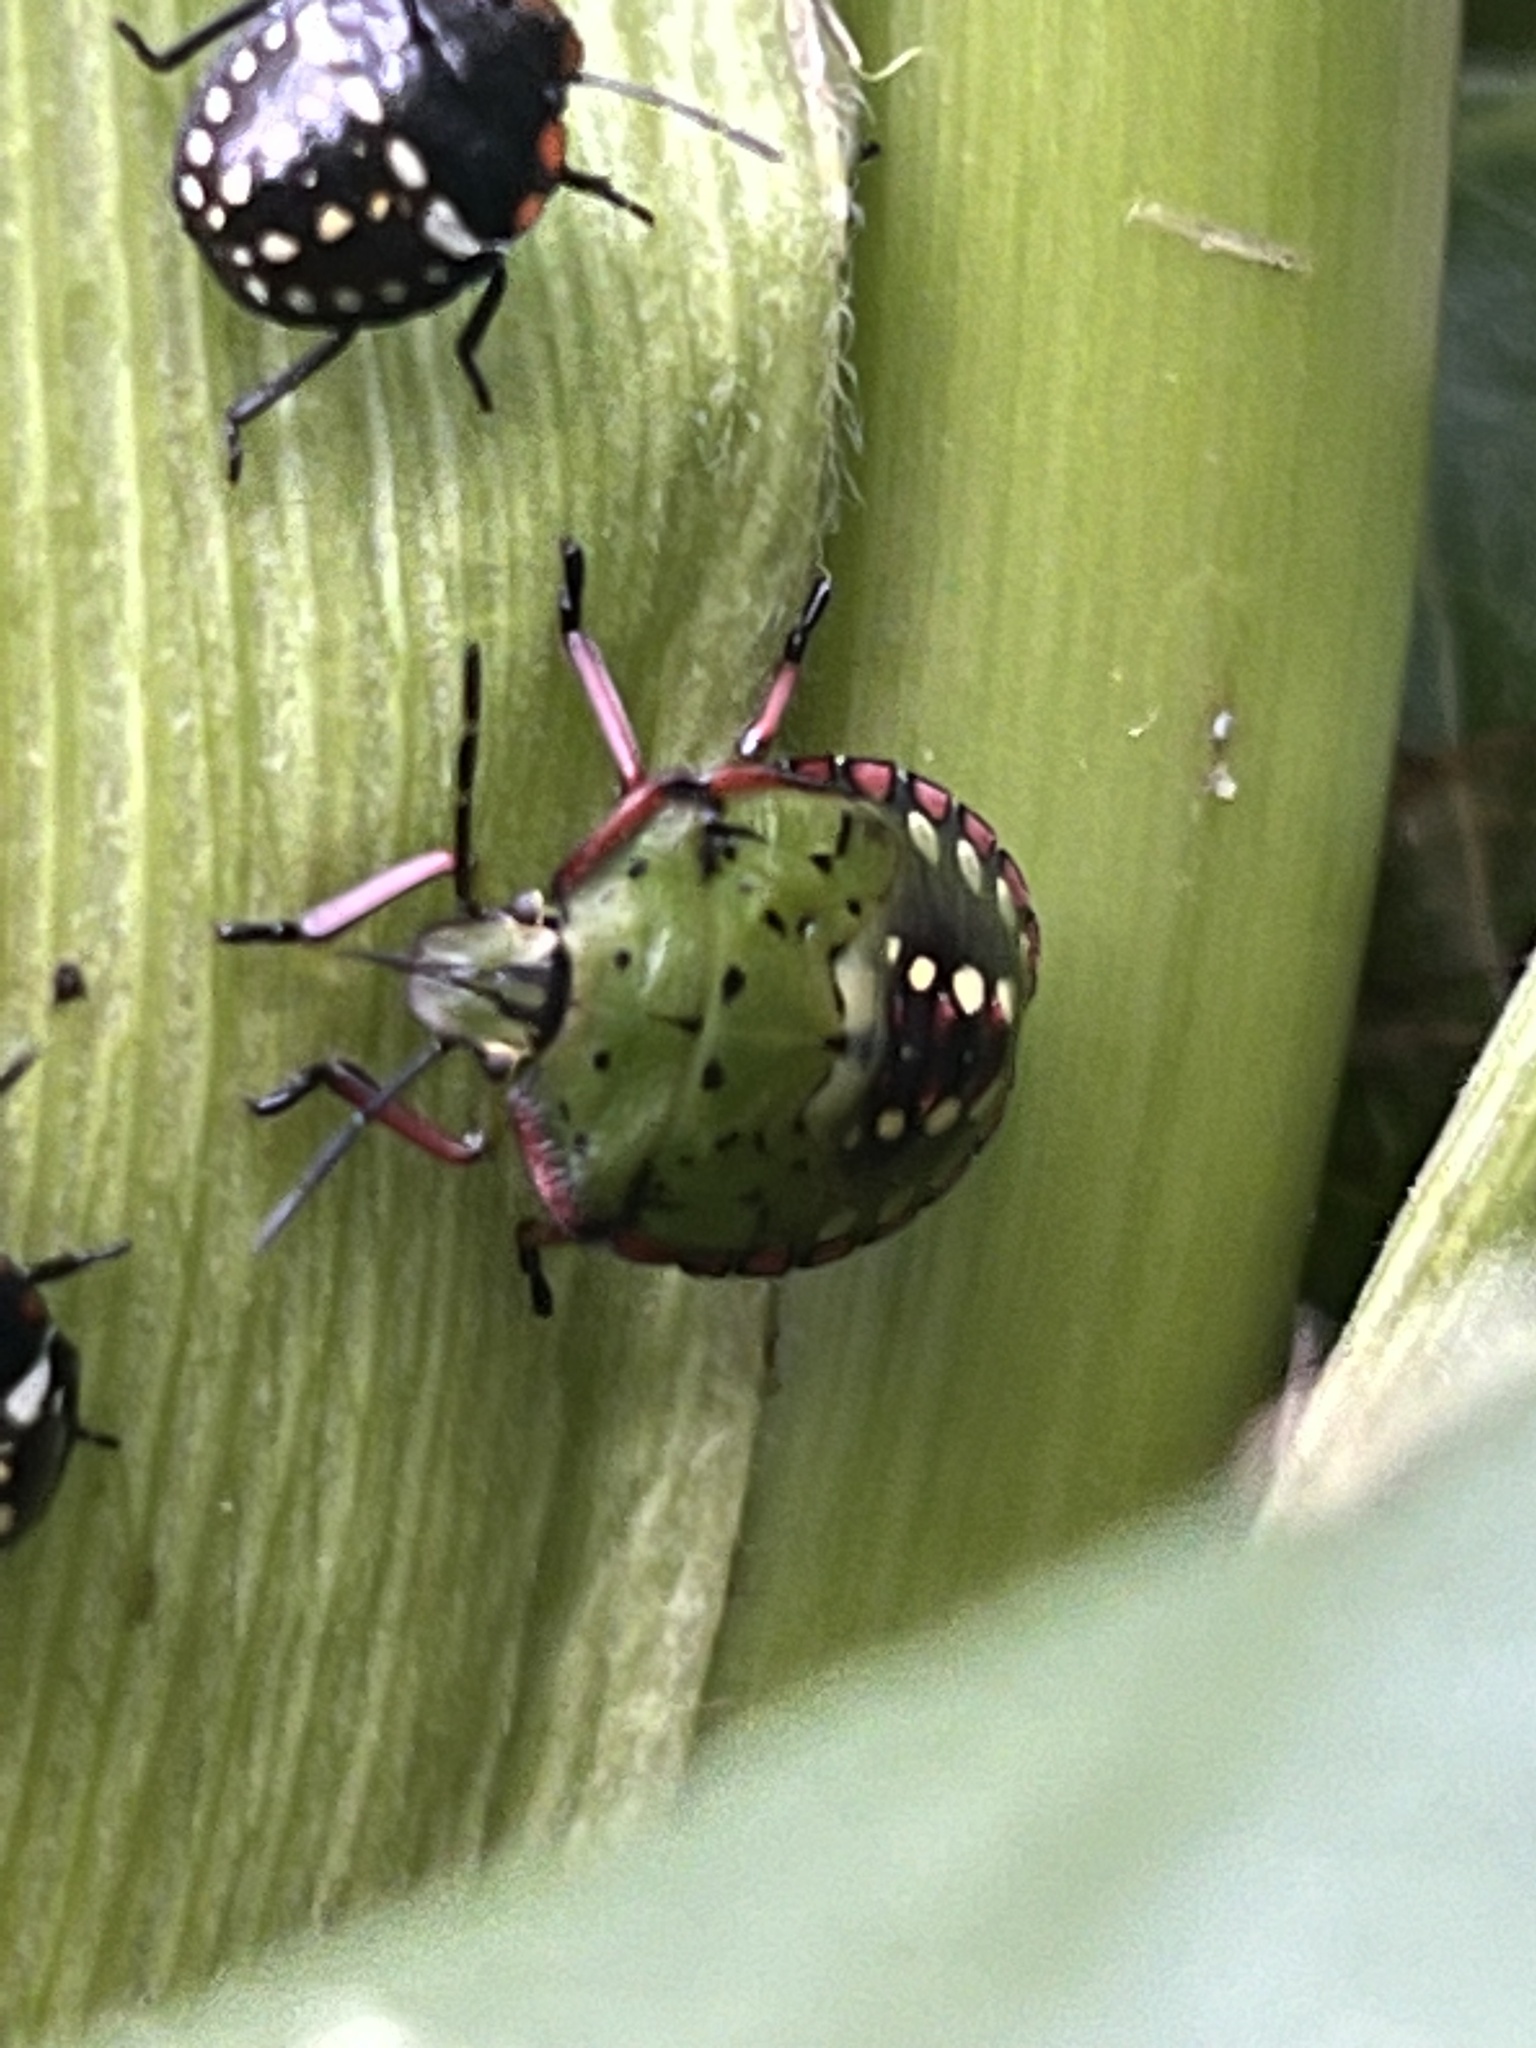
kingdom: Animalia
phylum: Arthropoda
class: Insecta
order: Hemiptera
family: Pentatomidae
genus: Nezara
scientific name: Nezara viridula
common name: Southern green stink bug
